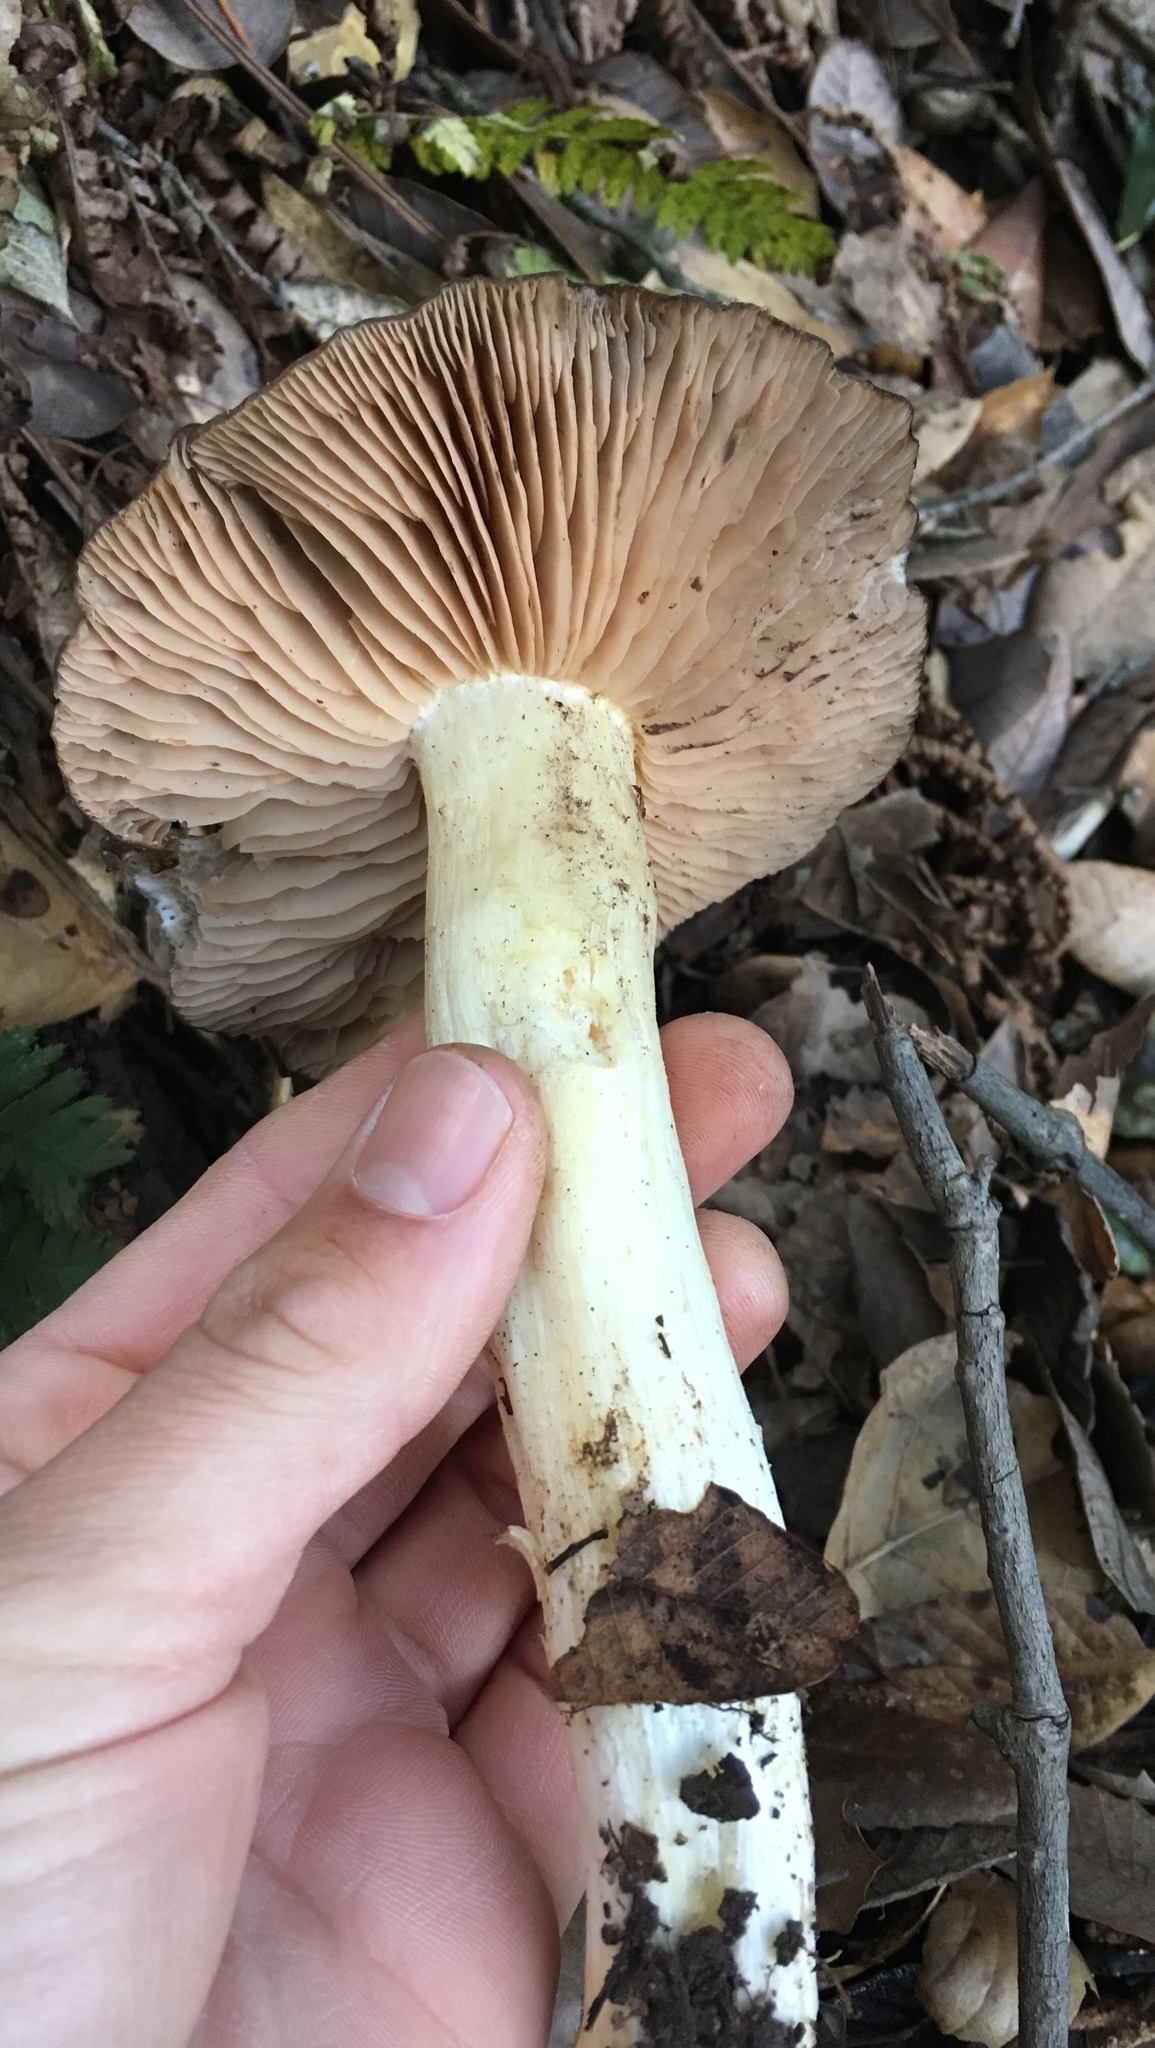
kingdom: Fungi
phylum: Basidiomycota
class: Agaricomycetes
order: Agaricales
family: Entolomataceae
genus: Entoloma
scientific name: Entoloma ferruginans
